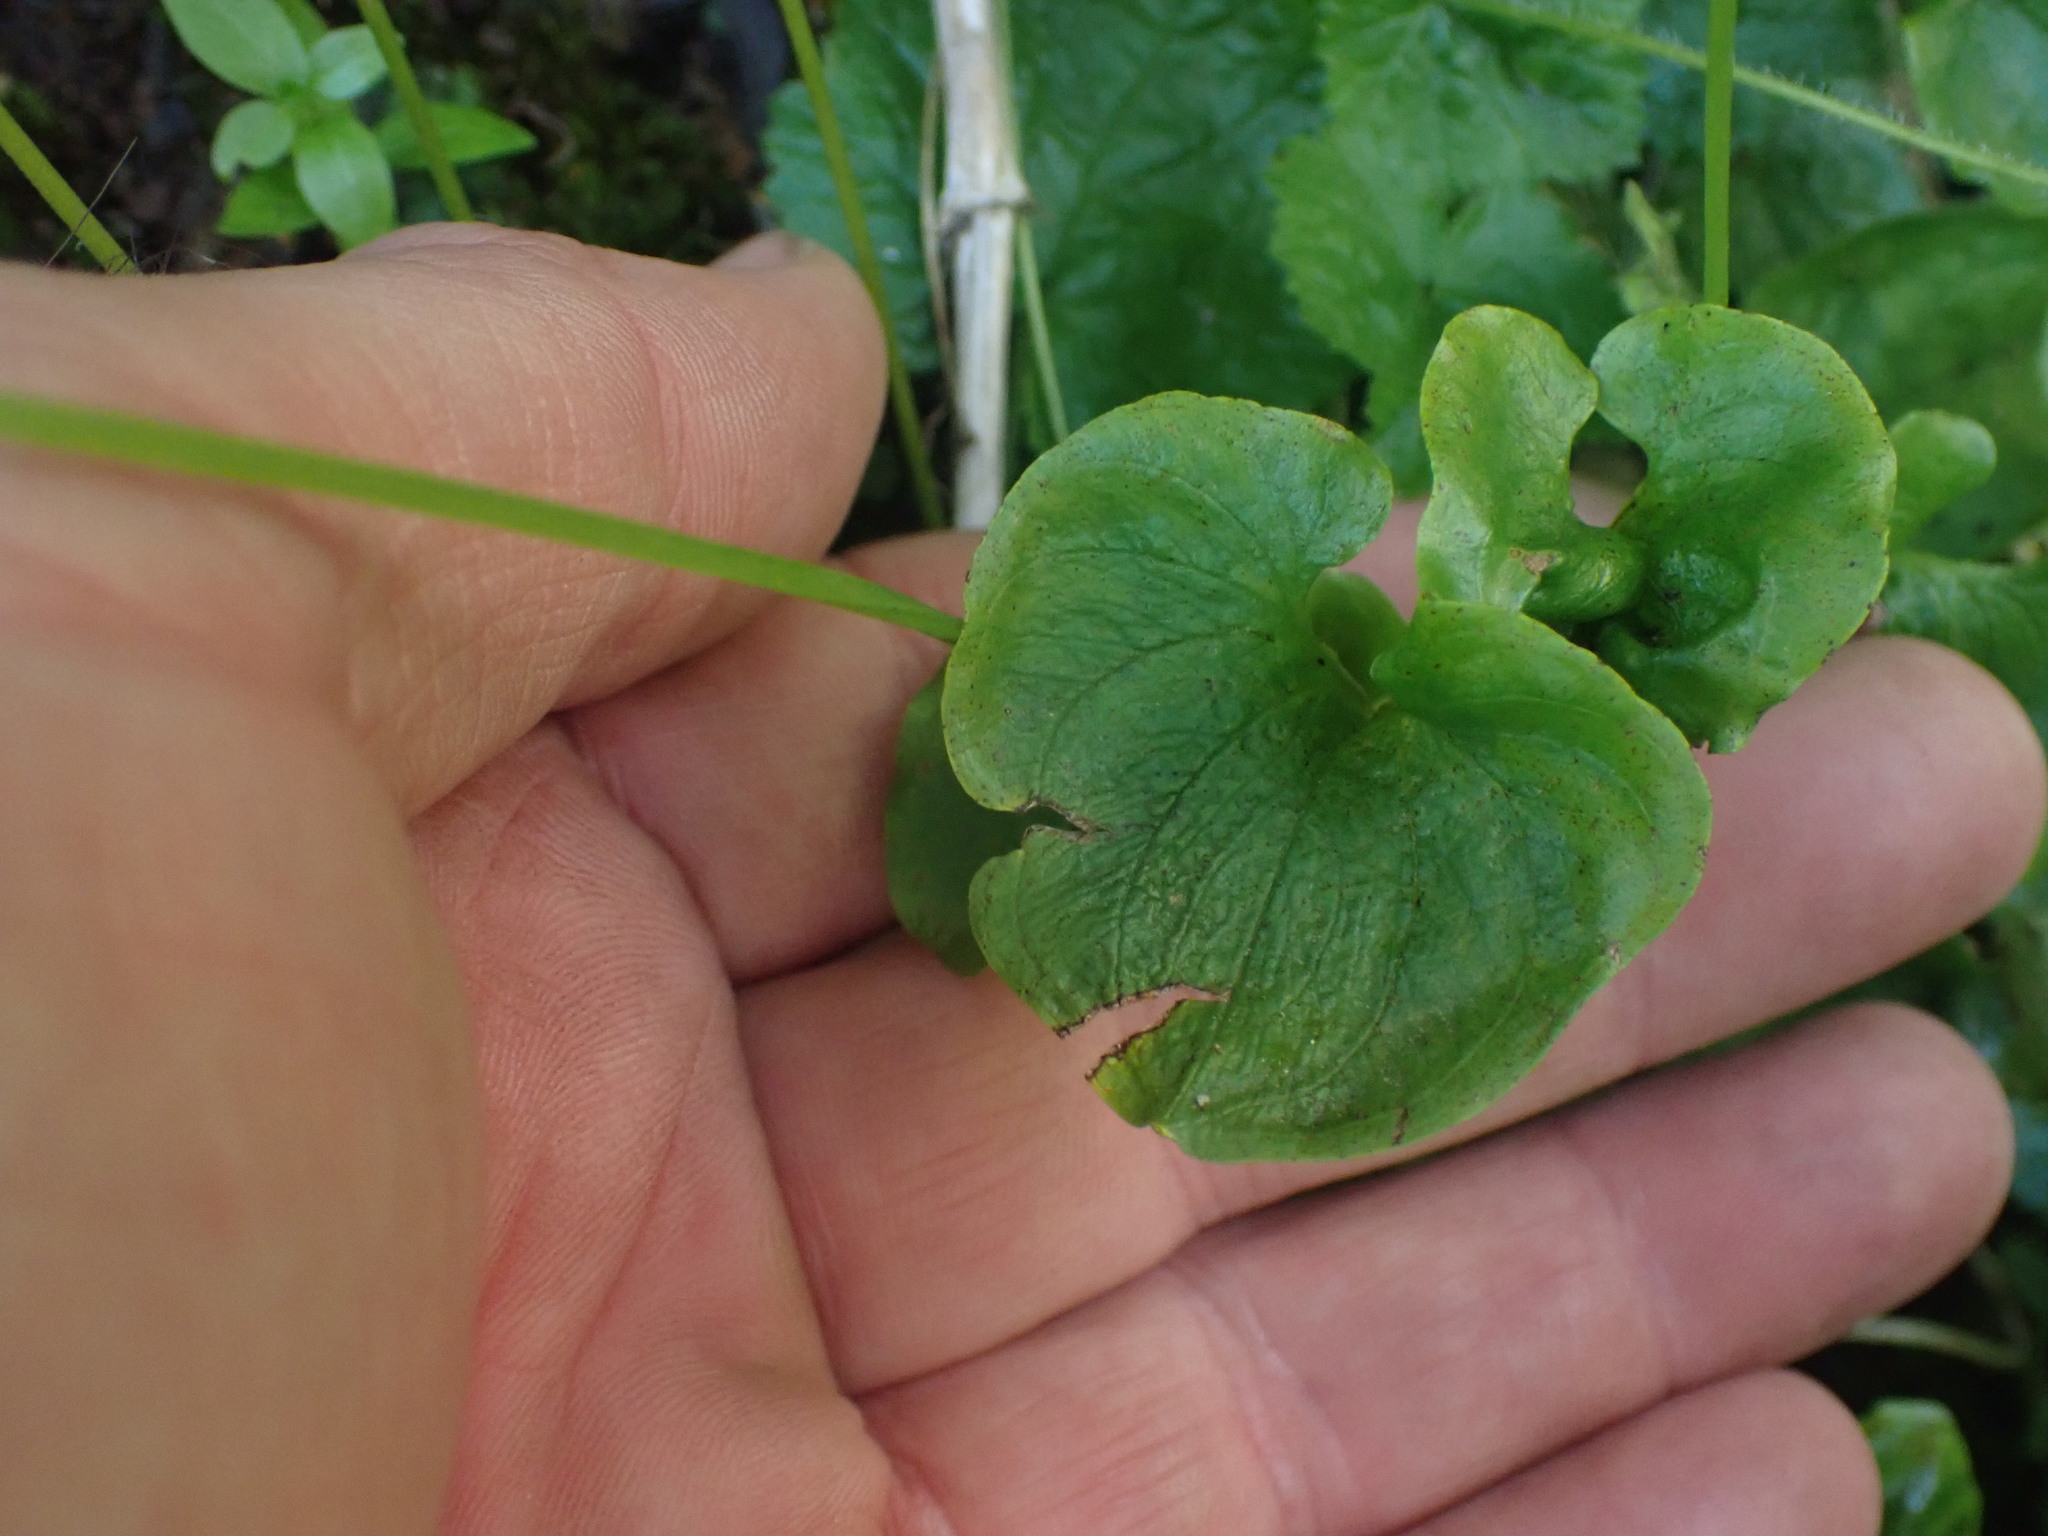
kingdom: Plantae
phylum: Tracheophyta
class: Magnoliopsida
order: Celastrales
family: Parnassiaceae
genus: Parnassia
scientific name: Parnassia fimbriata
